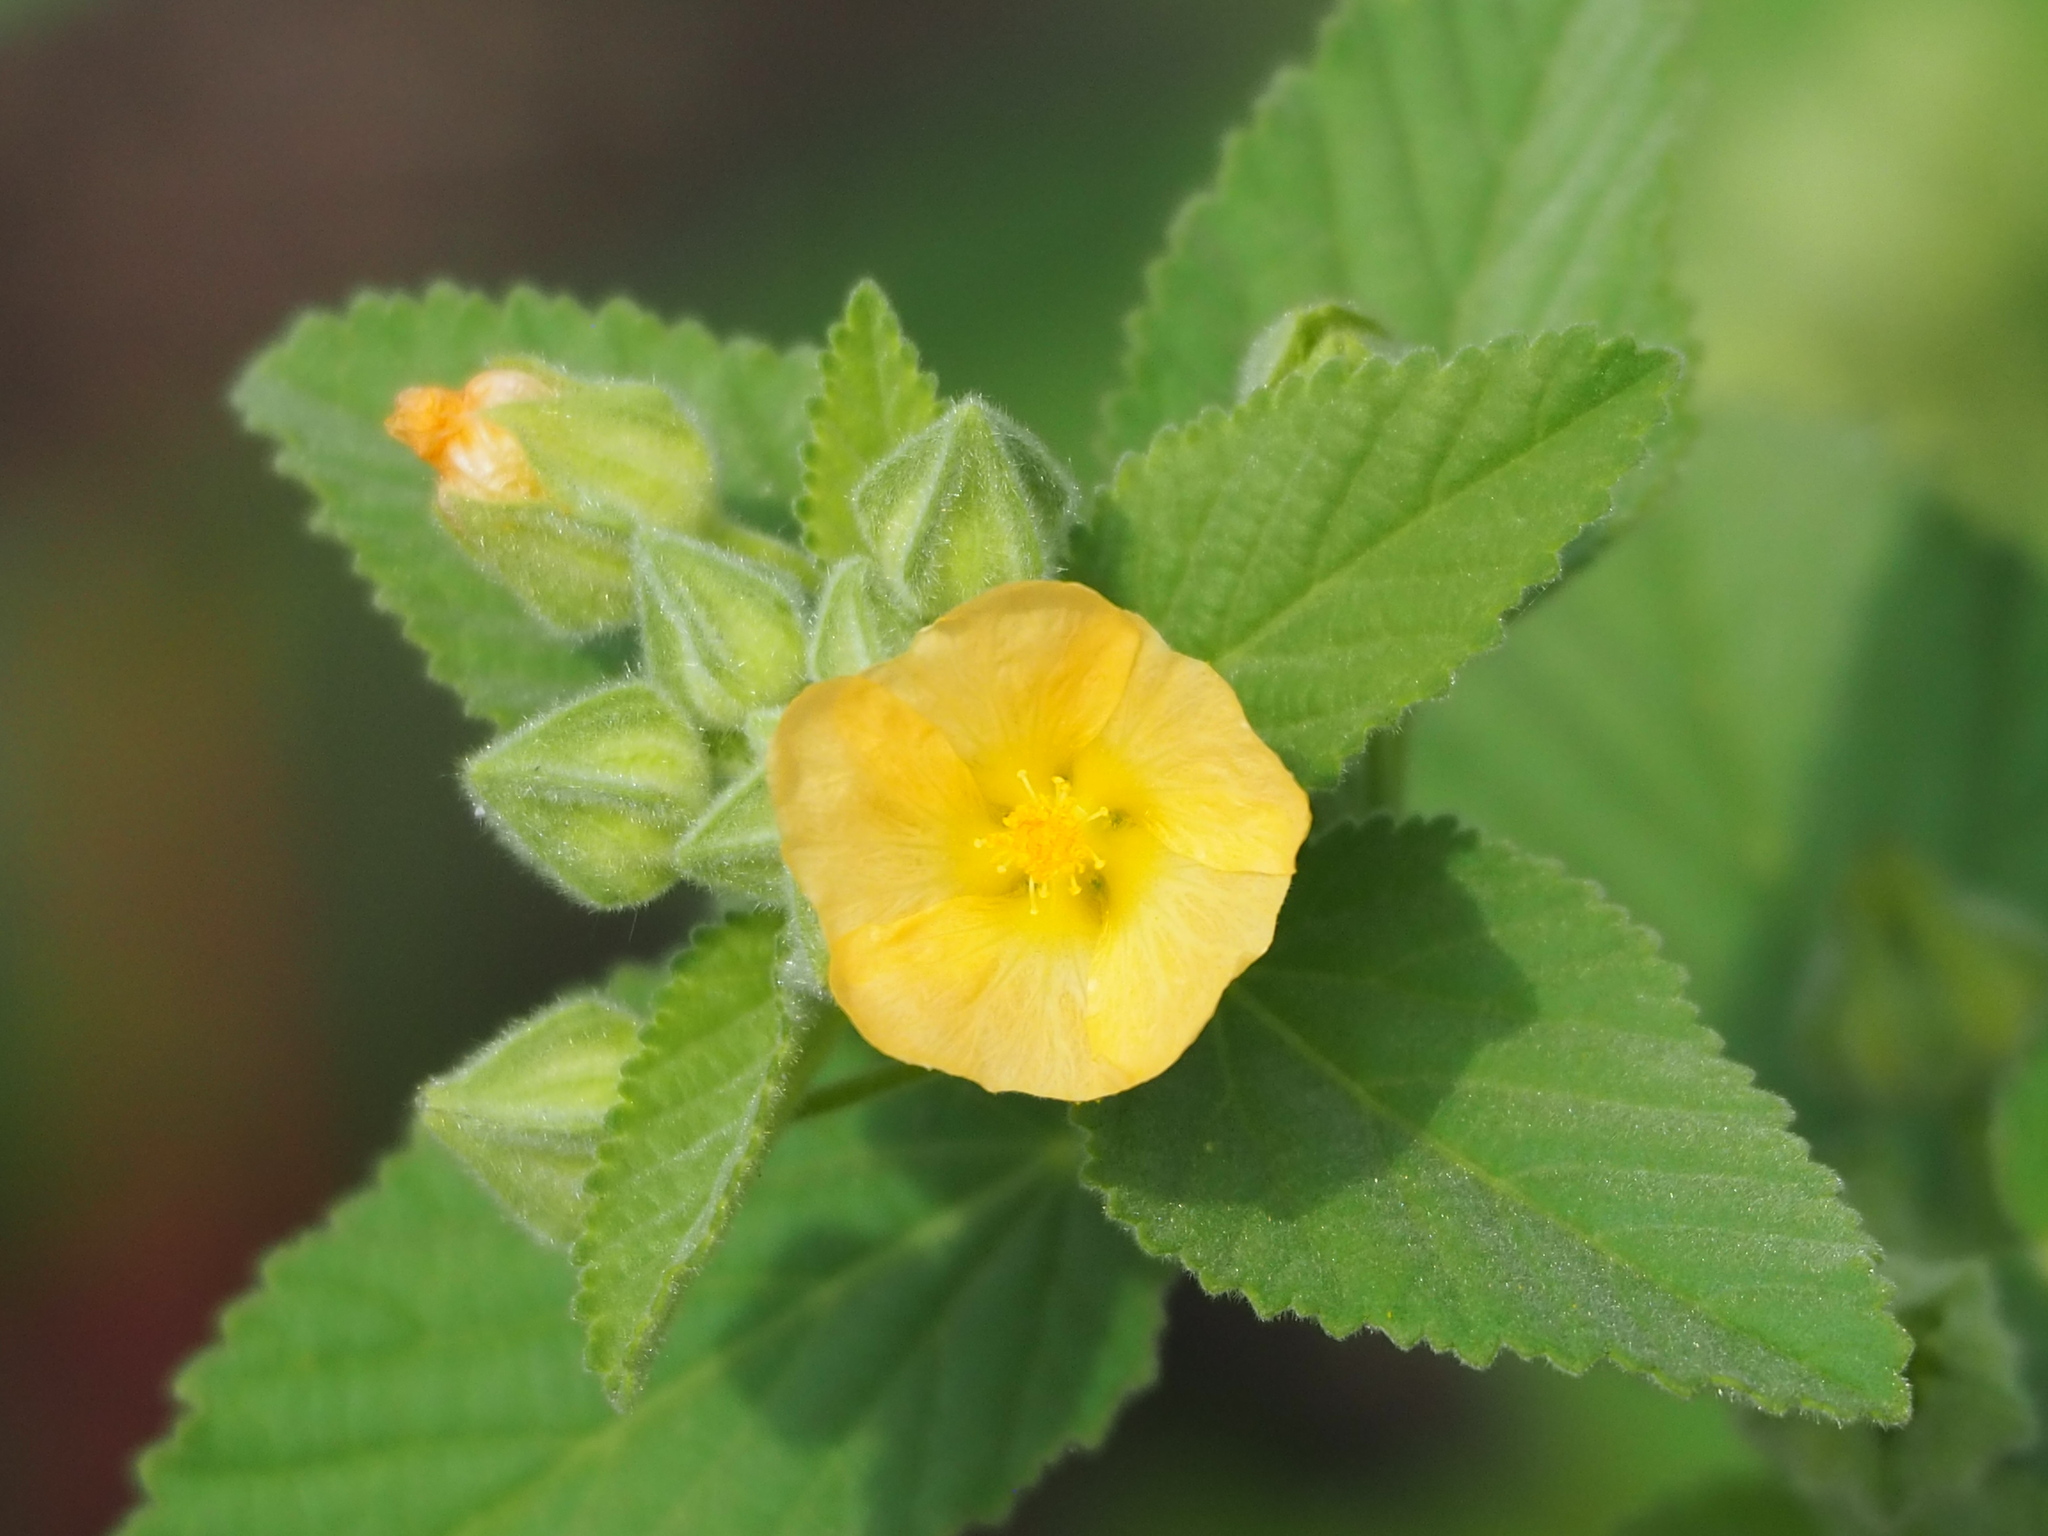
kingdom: Plantae
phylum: Tracheophyta
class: Magnoliopsida
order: Malvales
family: Malvaceae
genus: Sida
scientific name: Sida cordifolia
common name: Ilima
